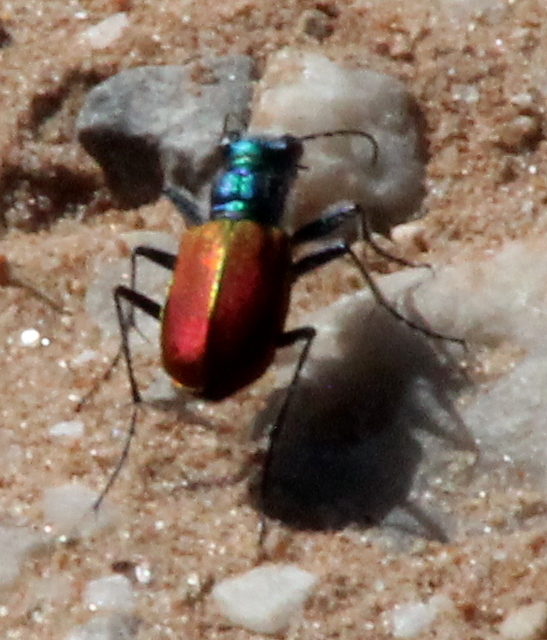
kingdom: Animalia
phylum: Arthropoda
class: Insecta
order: Coleoptera
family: Carabidae
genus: Cicindela
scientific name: Cicindela scutellaris
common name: Festive tiger beetle
